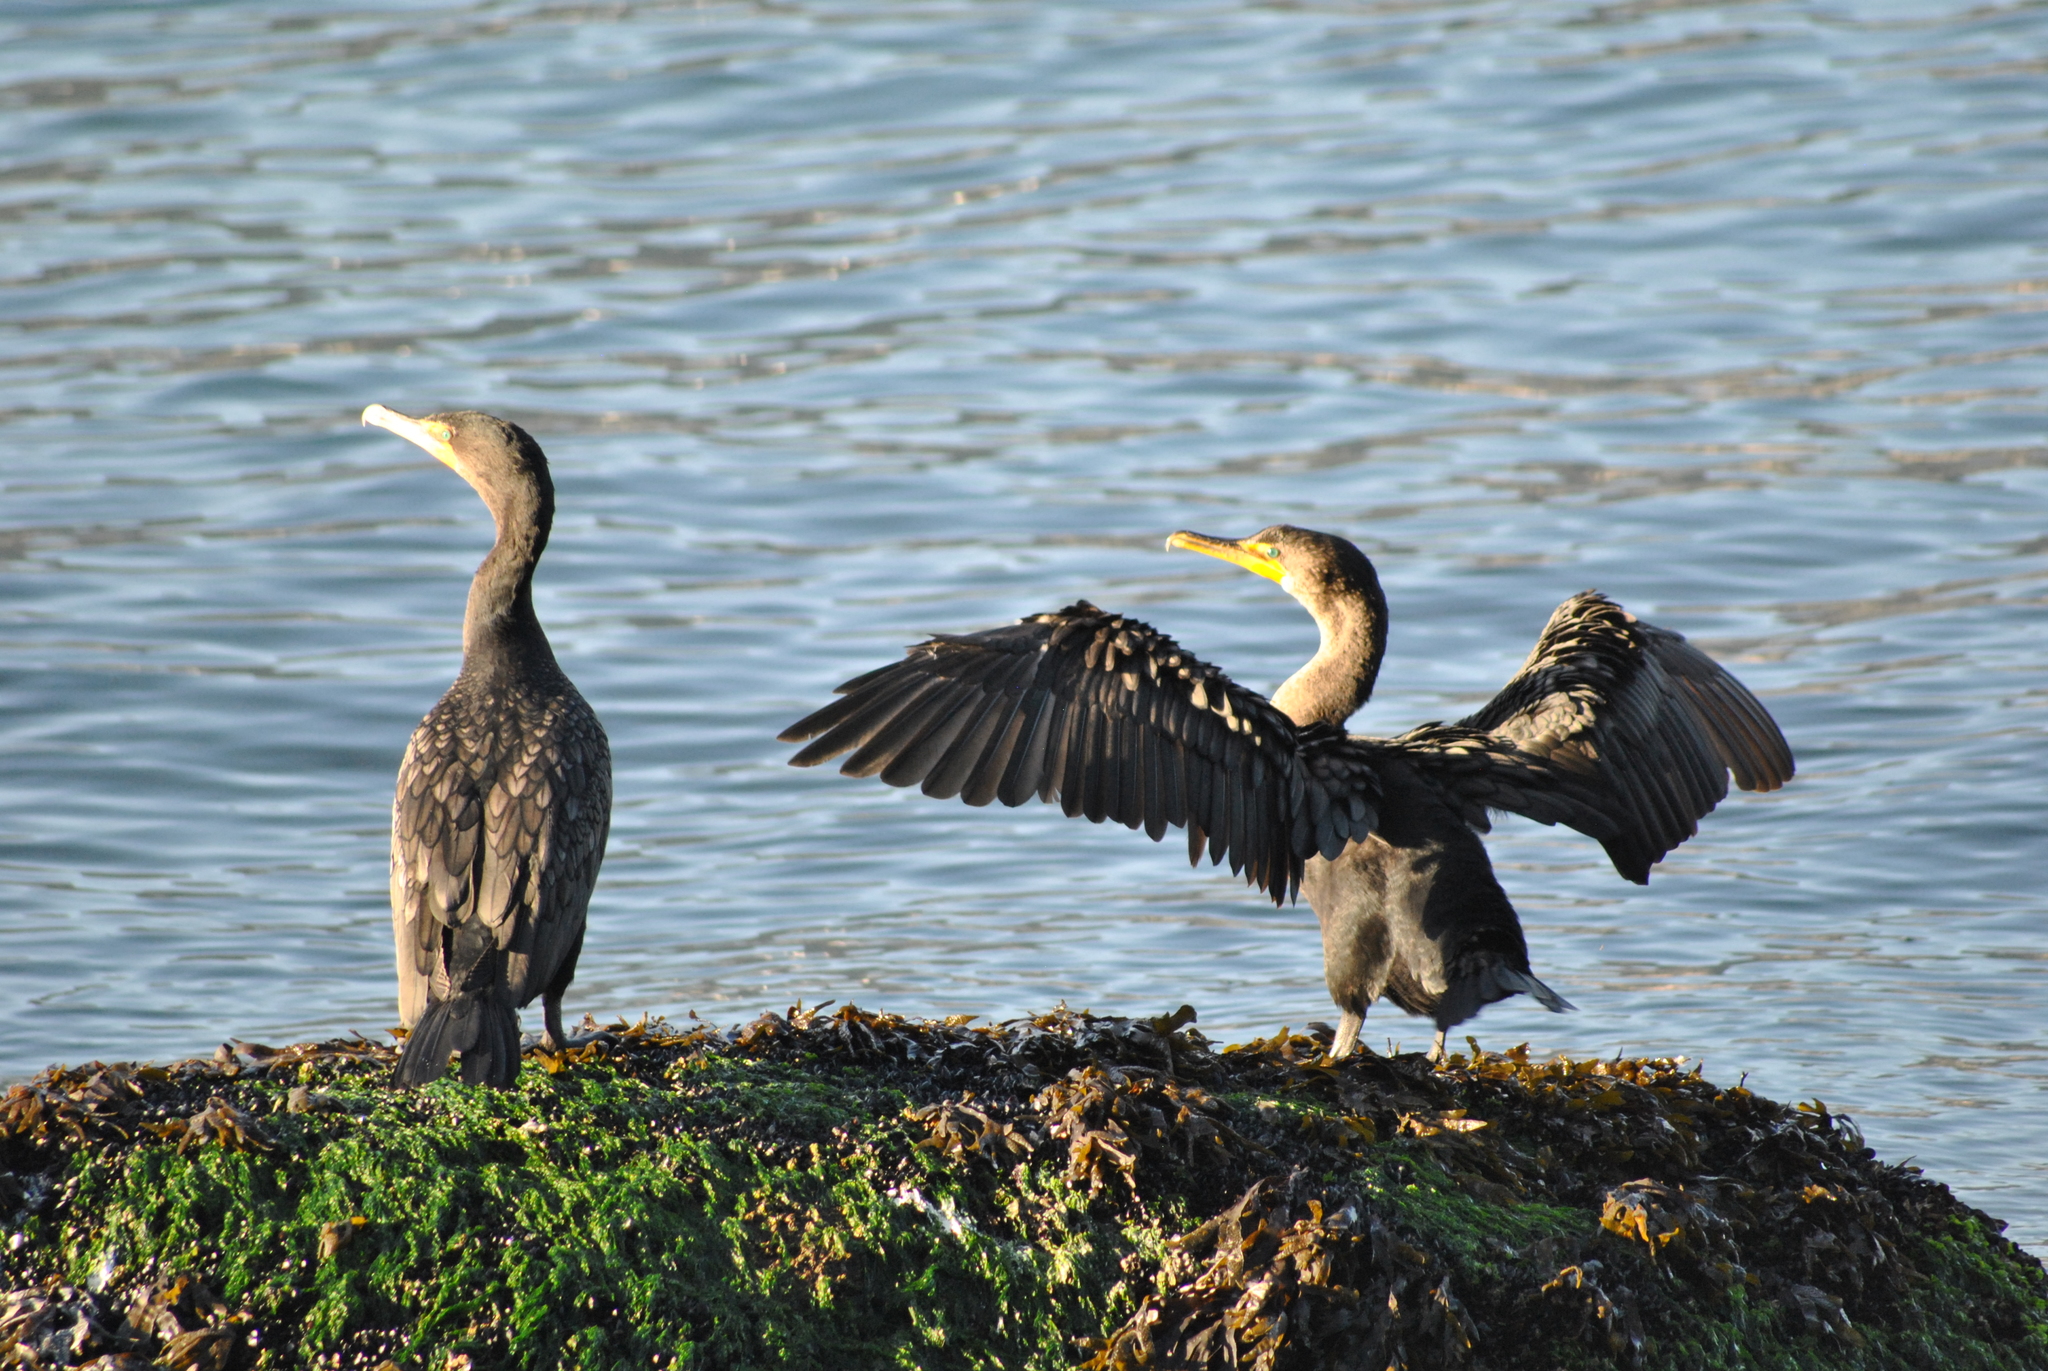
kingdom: Animalia
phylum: Chordata
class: Aves
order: Suliformes
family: Phalacrocoracidae
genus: Phalacrocorax
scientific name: Phalacrocorax auritus
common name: Double-crested cormorant
